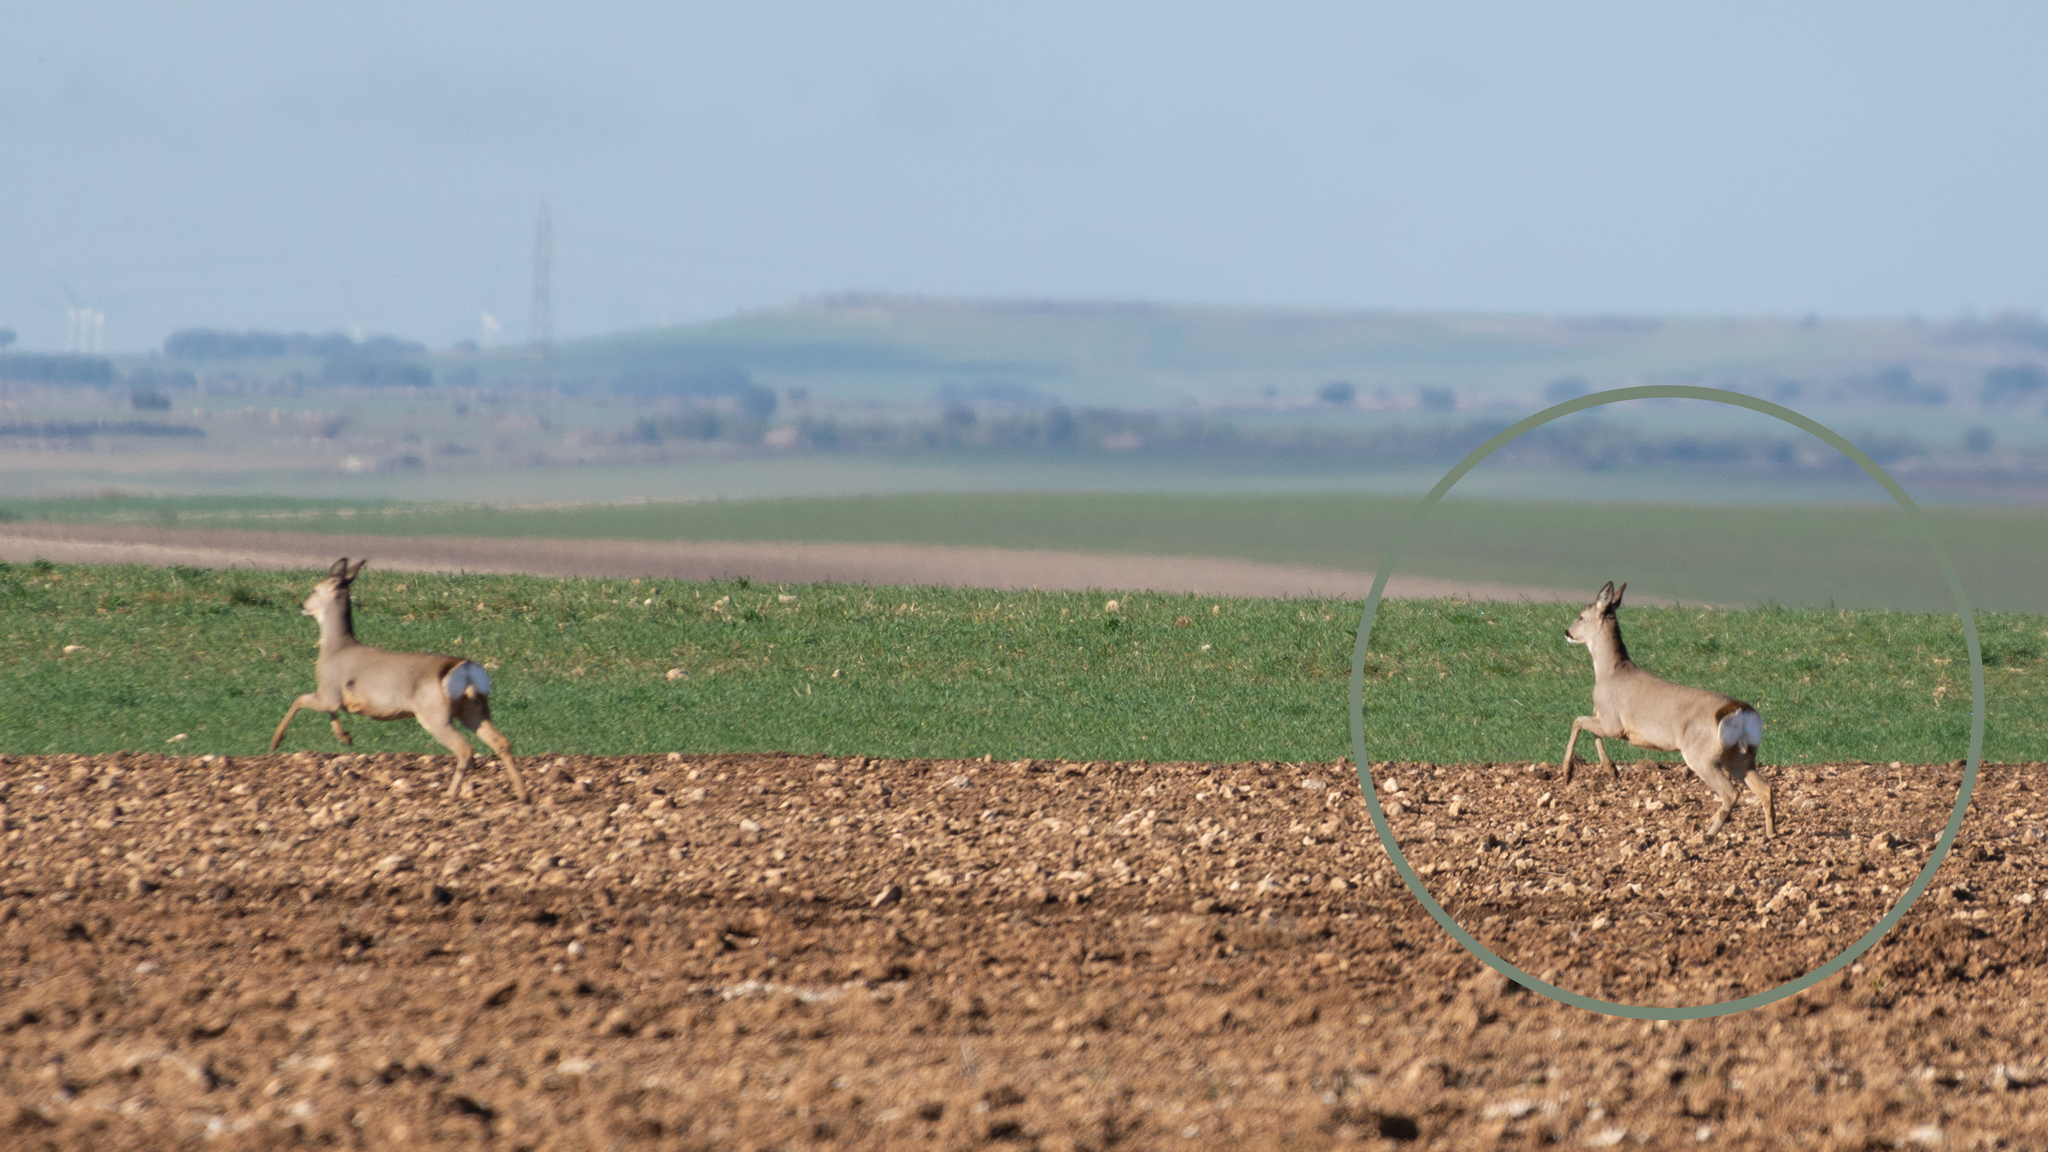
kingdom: Animalia
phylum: Chordata
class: Mammalia
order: Artiodactyla
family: Cervidae
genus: Capreolus
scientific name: Capreolus capreolus
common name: Western roe deer
